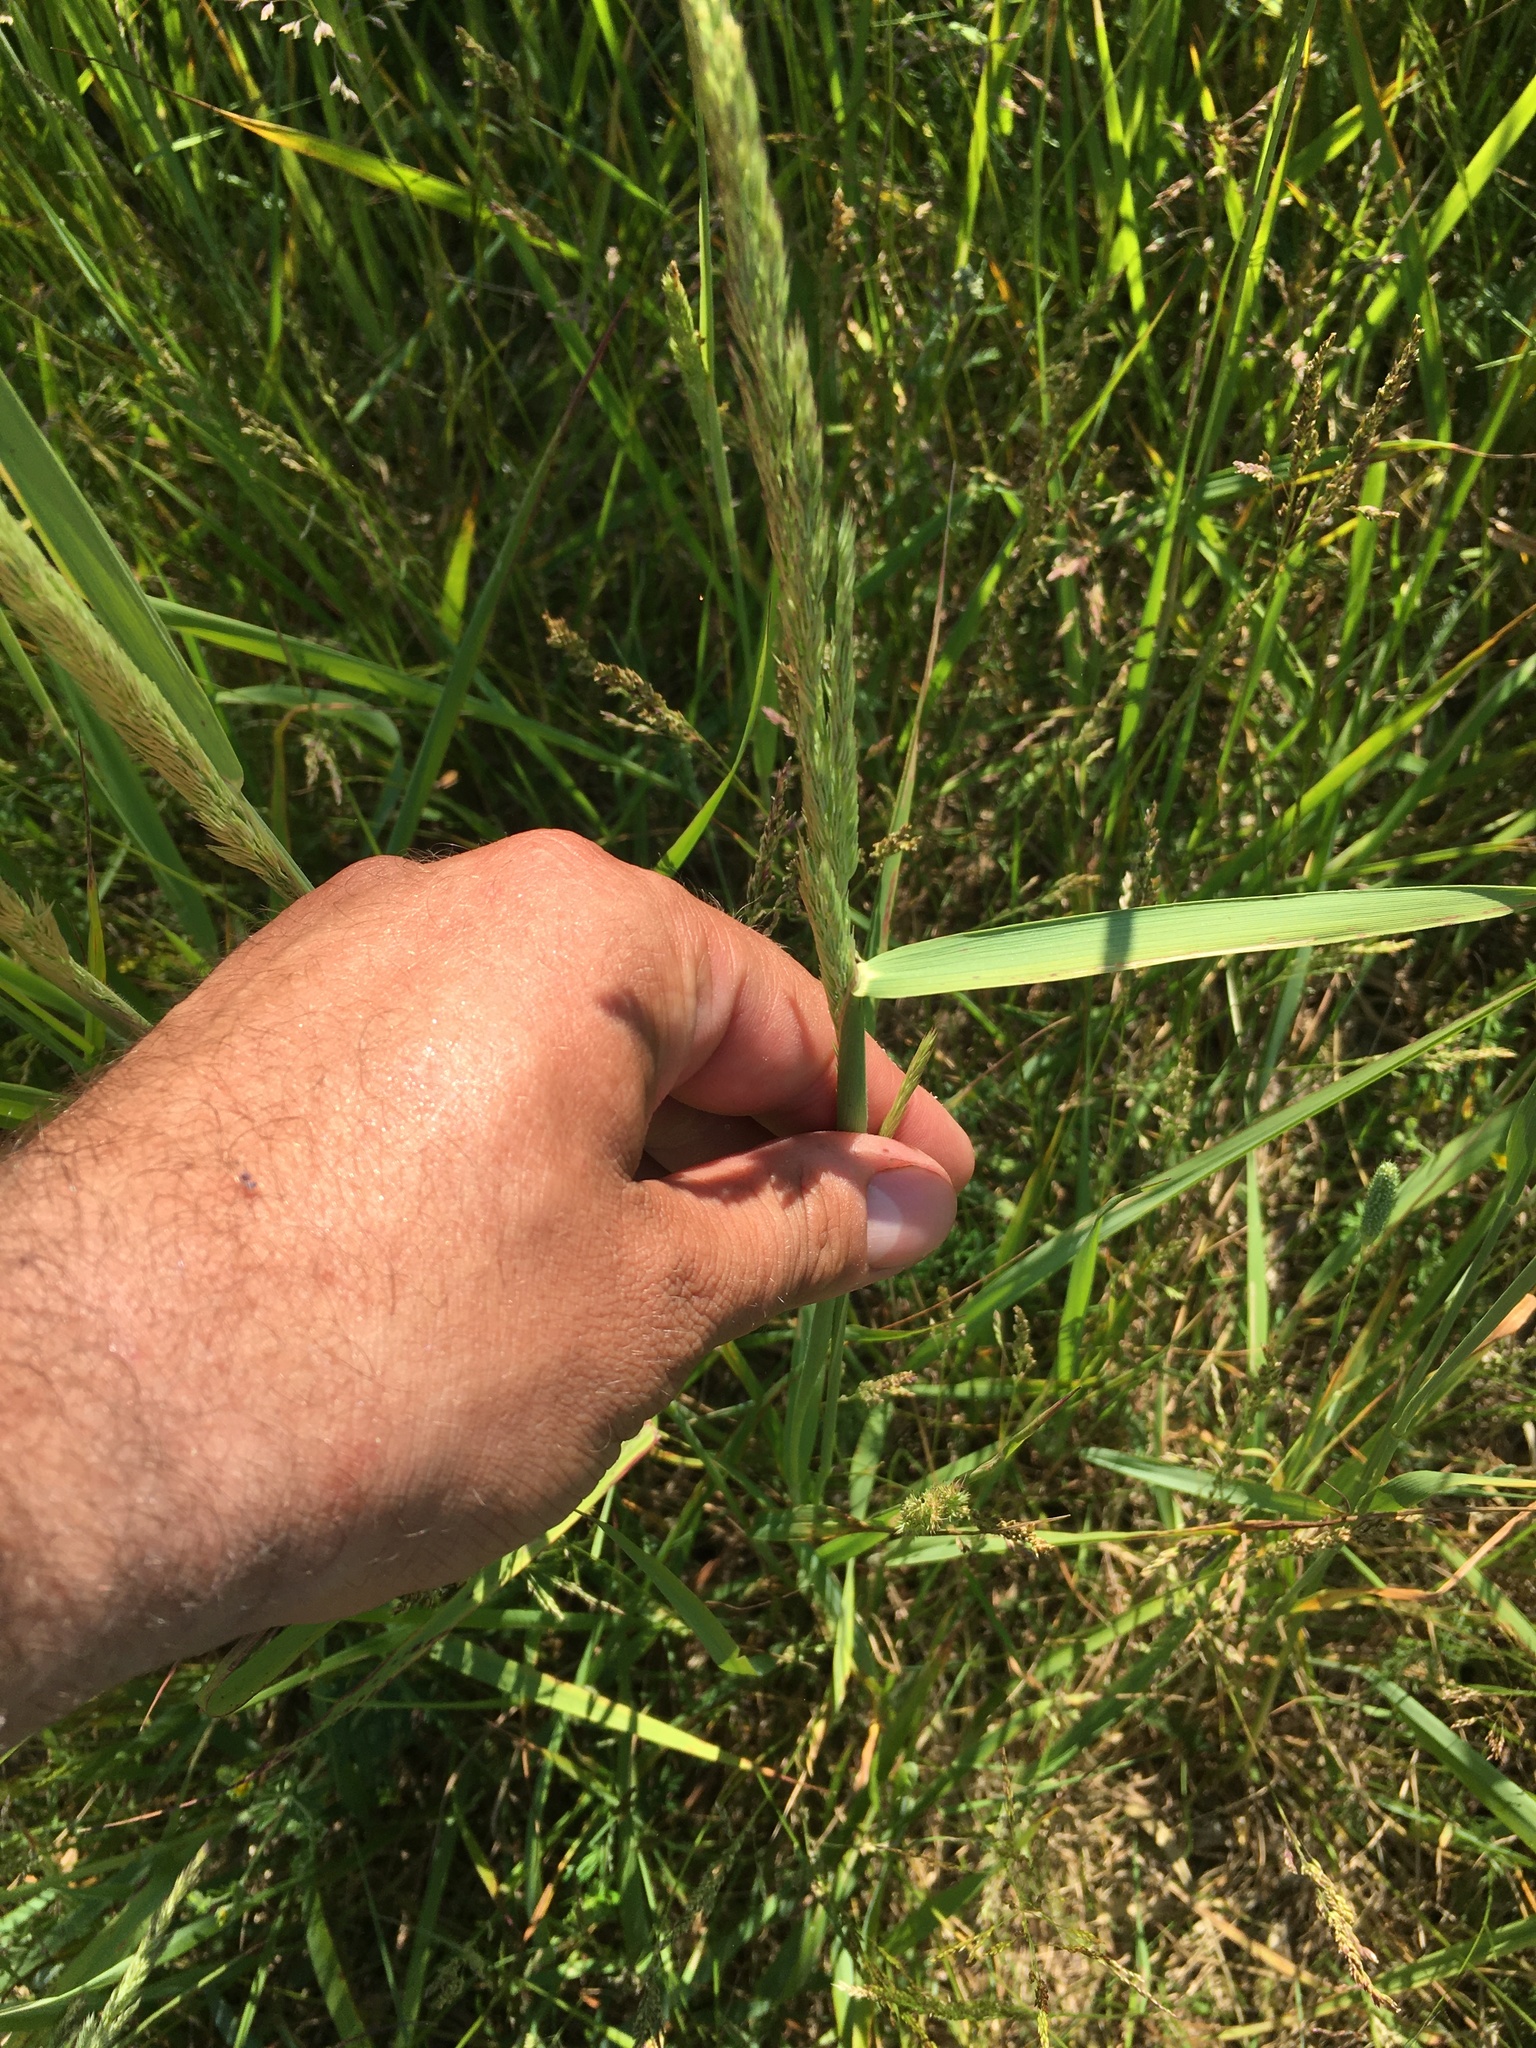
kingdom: Plantae
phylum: Tracheophyta
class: Liliopsida
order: Poales
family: Poaceae
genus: Calamagrostis
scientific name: Calamagrostis epigejos
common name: Wood small-reed
